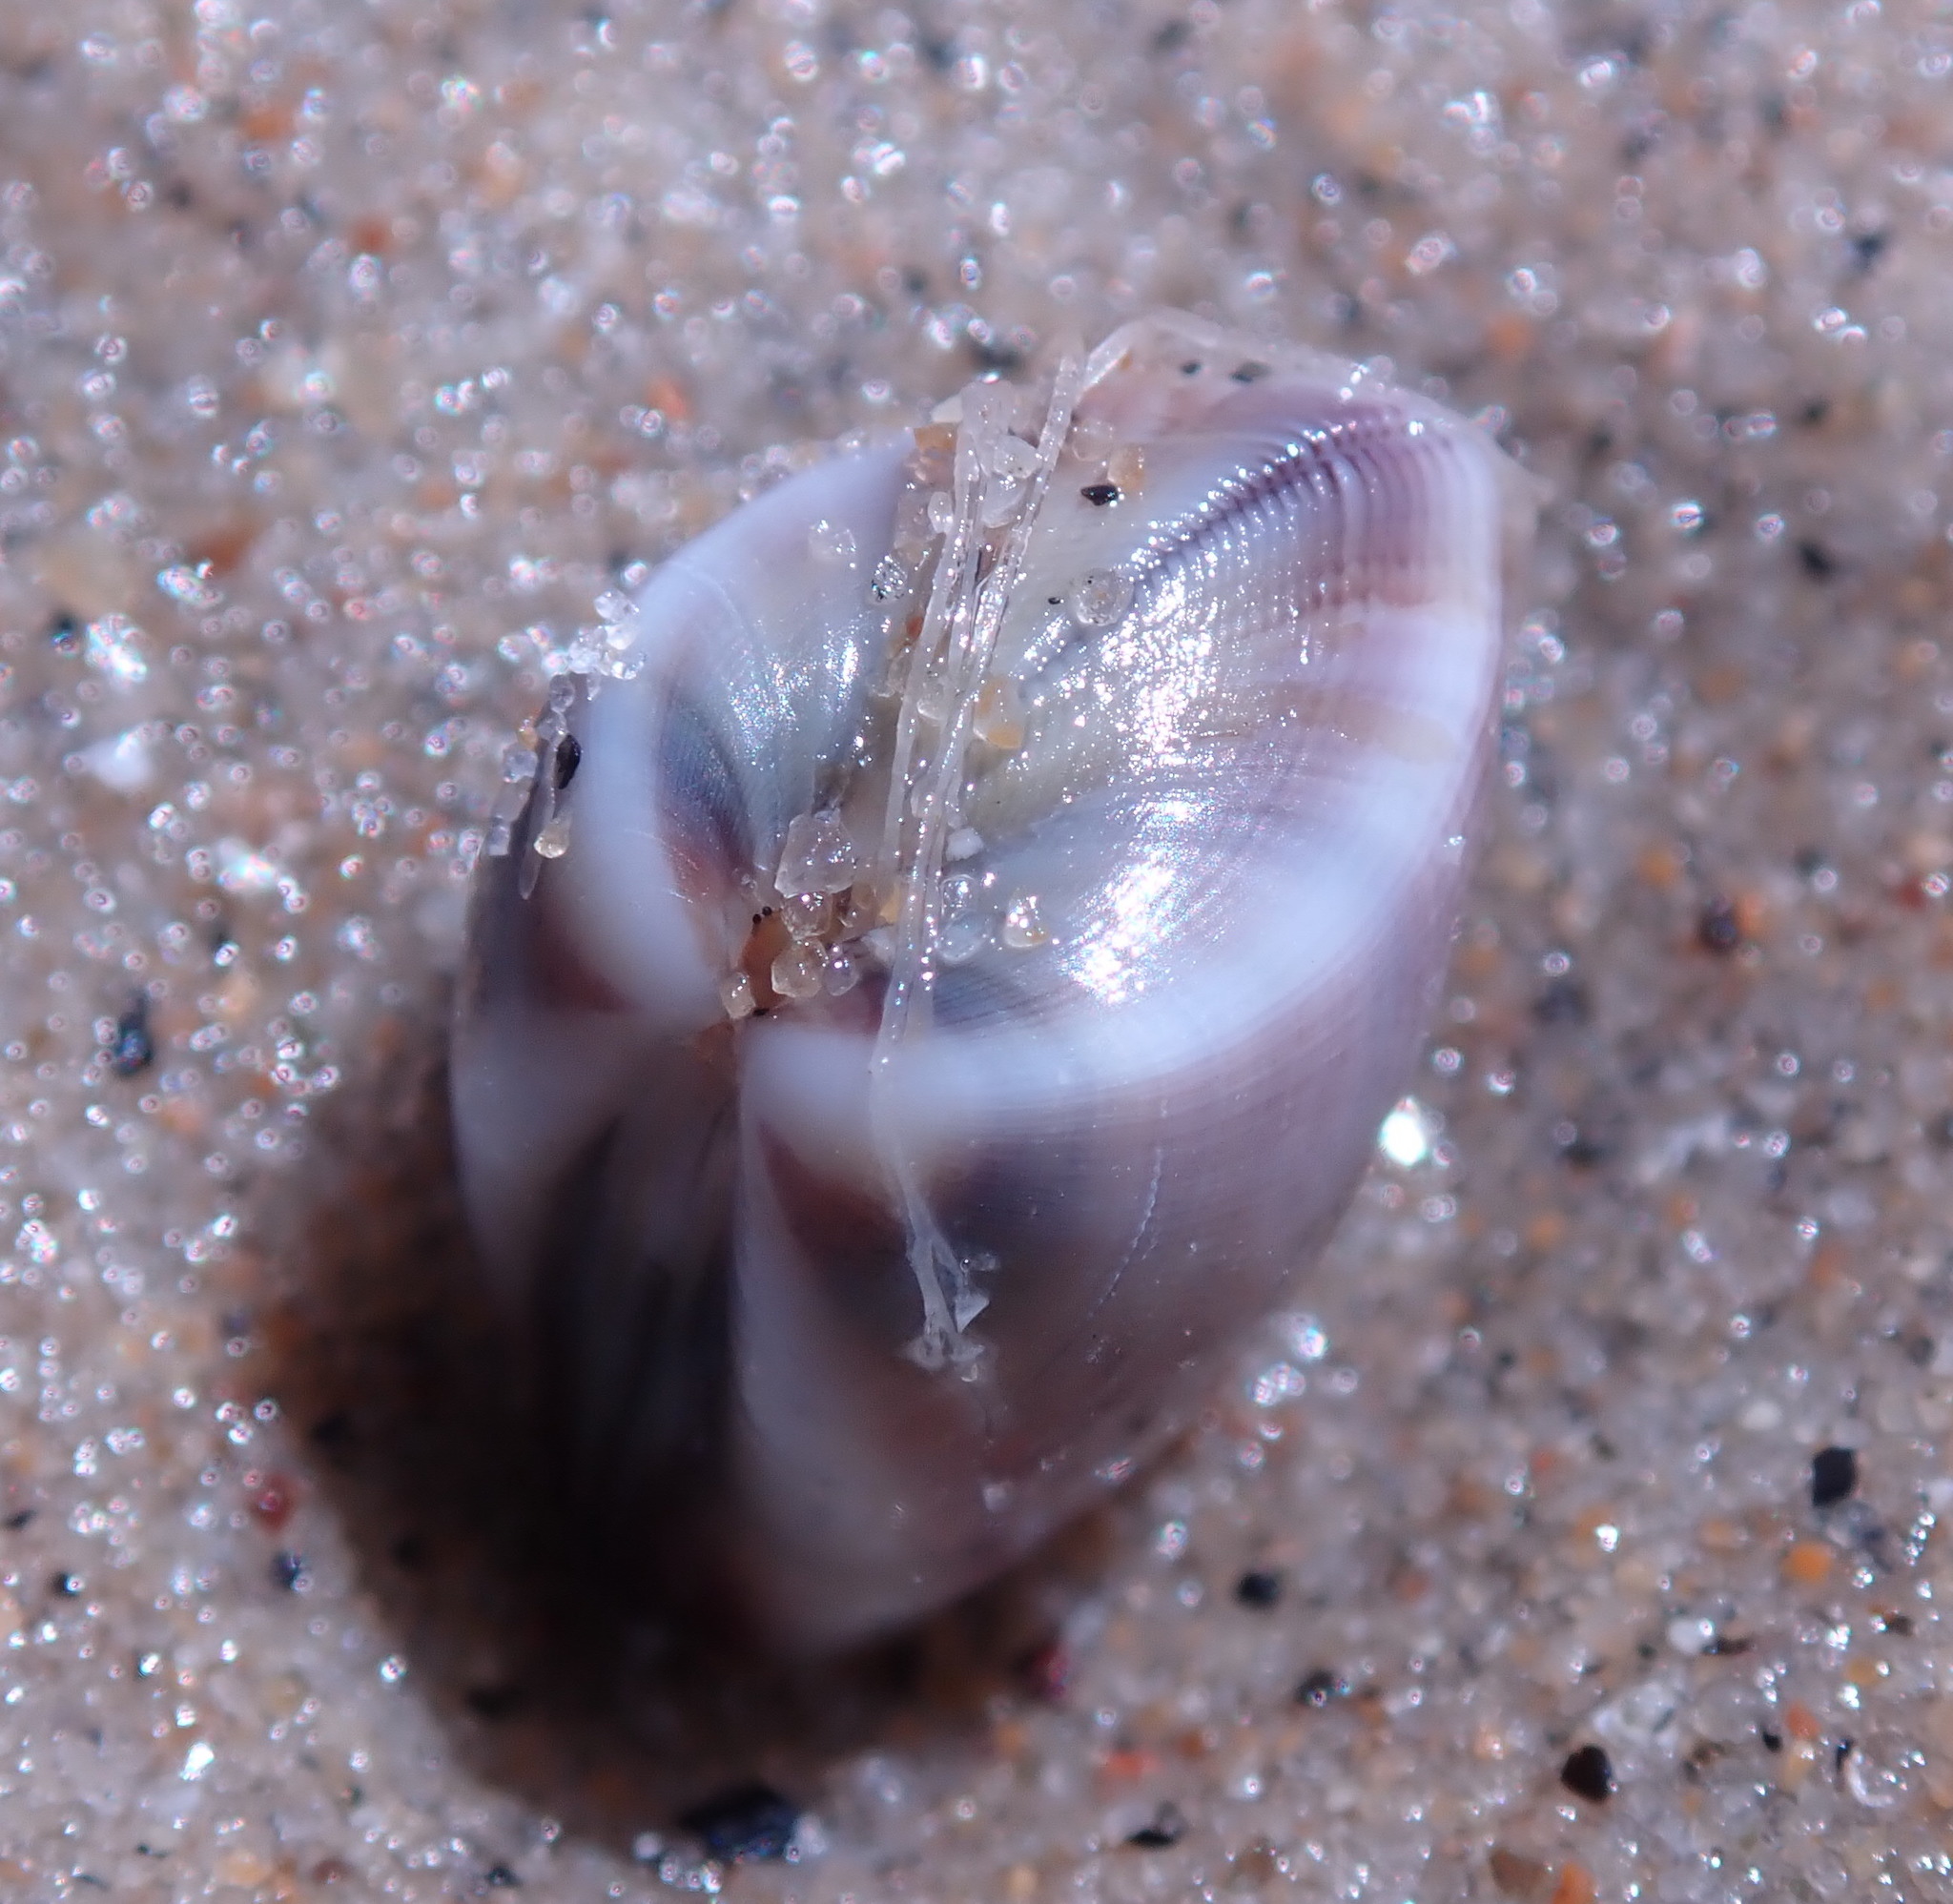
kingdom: Animalia
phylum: Cnidaria
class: Hydrozoa
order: Leptothecata
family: Lovenellidae
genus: Eucheilota
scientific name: Eucheilota bakeri
